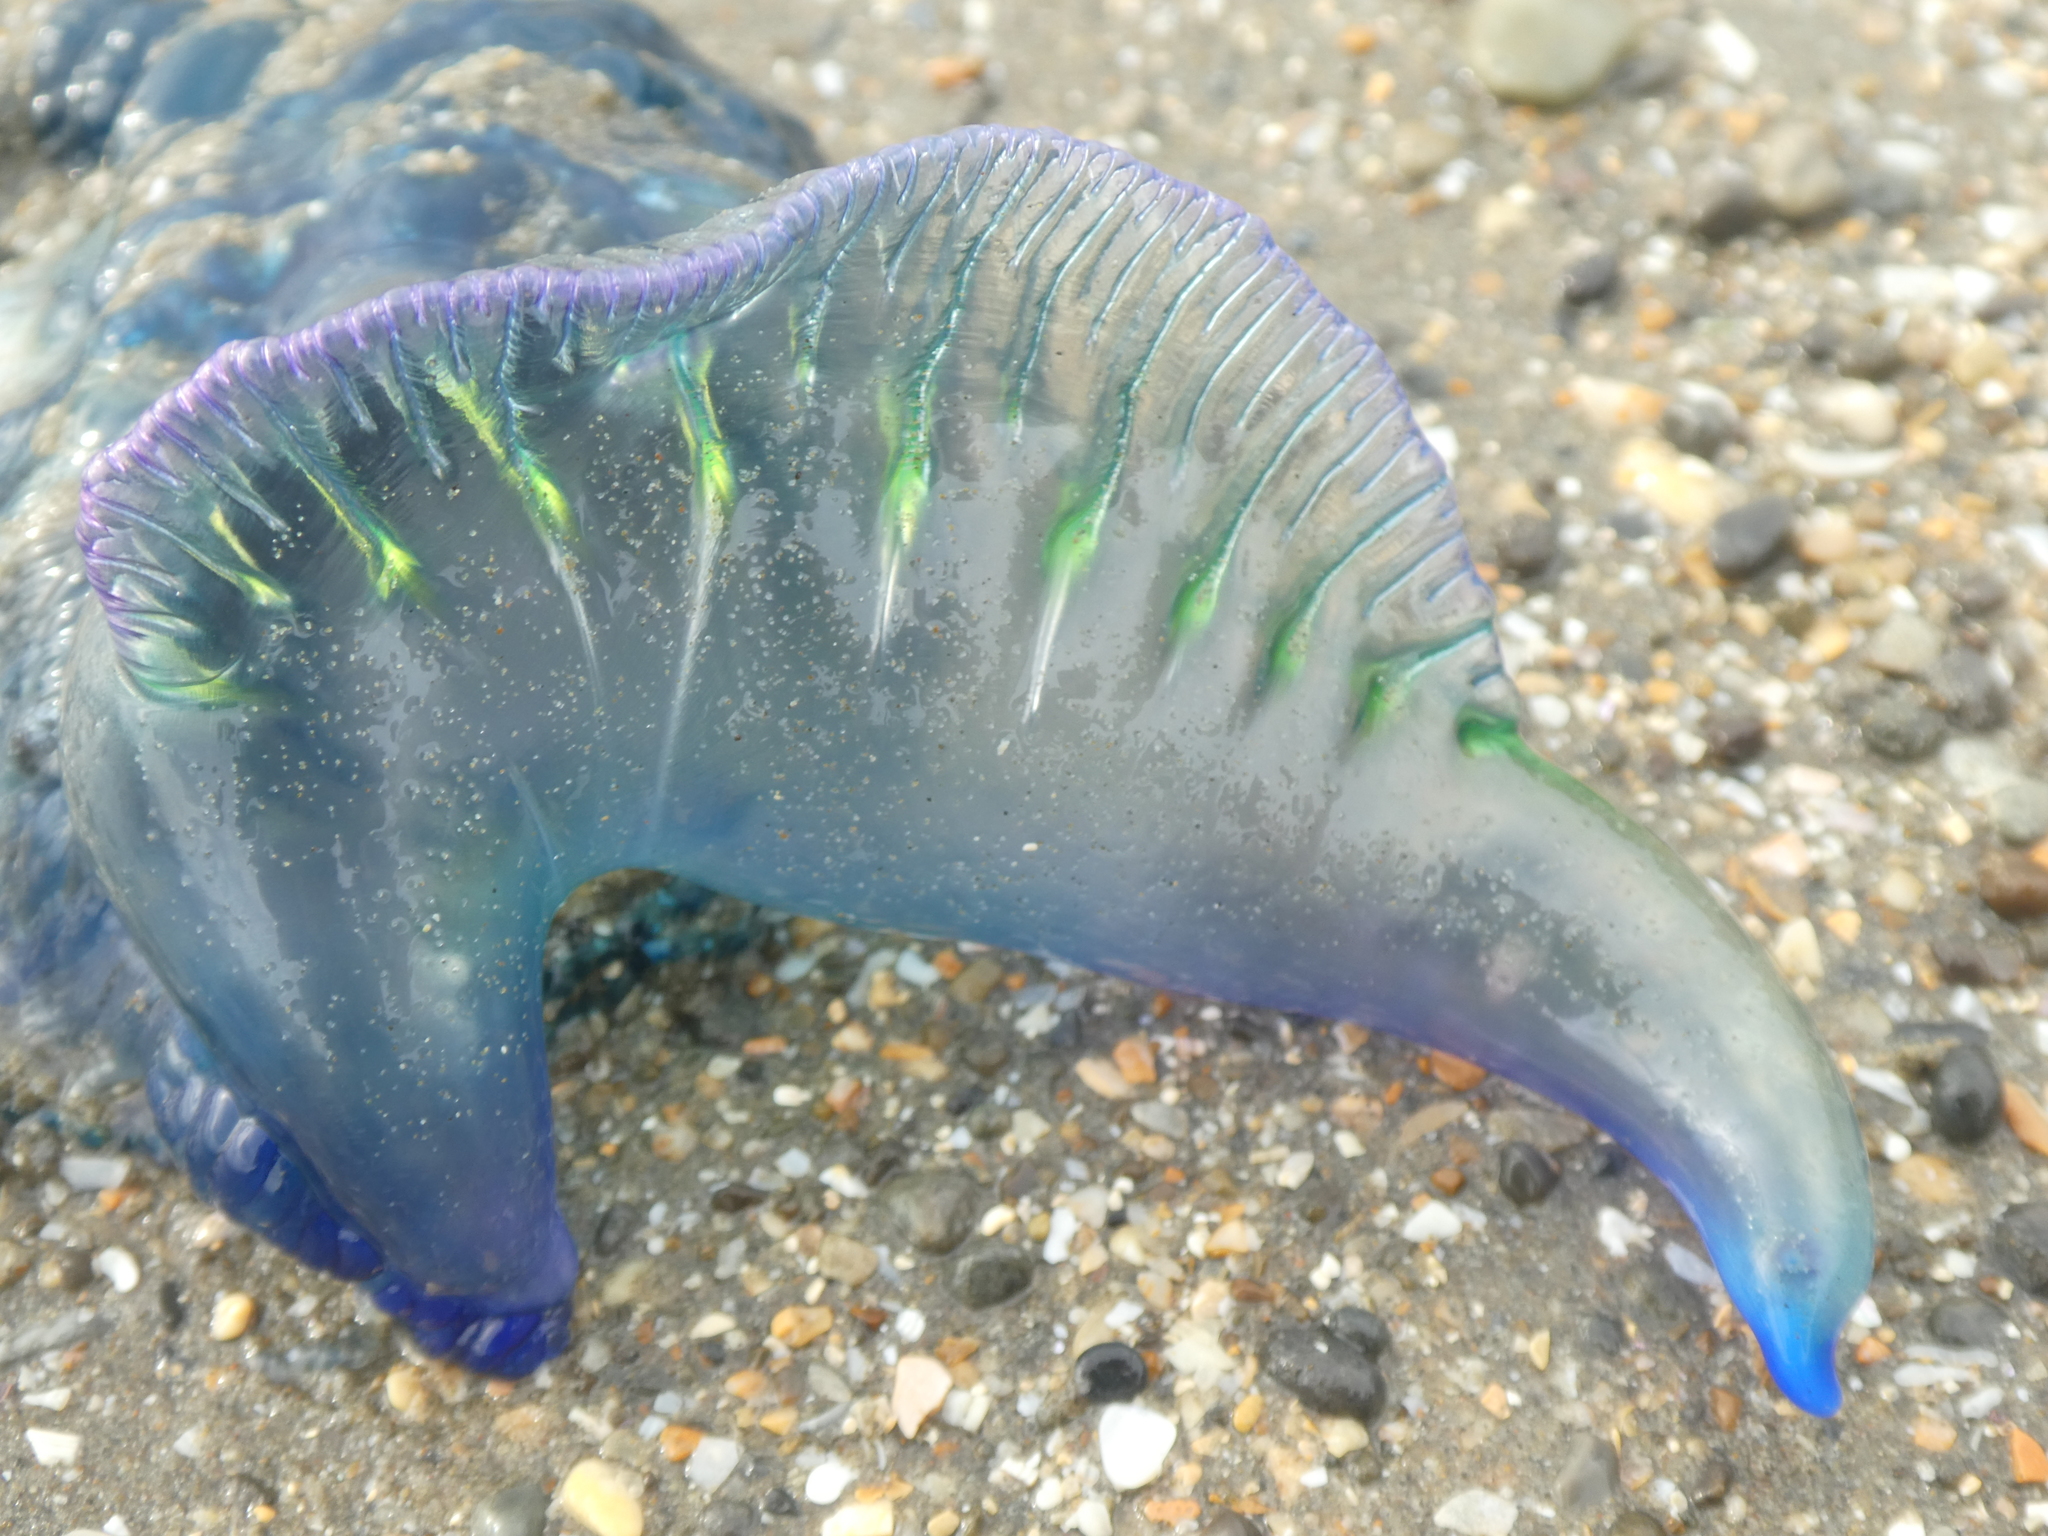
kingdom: Animalia
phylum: Cnidaria
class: Hydrozoa
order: Siphonophorae
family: Physaliidae
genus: Physalia
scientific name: Physalia physalis
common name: Portuguese man-of-war
